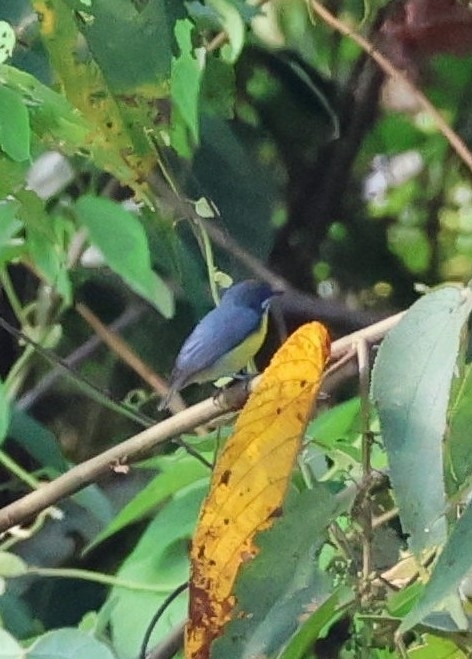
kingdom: Animalia
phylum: Chordata
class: Aves
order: Passeriformes
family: Dicaeidae
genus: Prionochilus
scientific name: Prionochilus percussus
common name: Crimson-breasted flowerpecker
